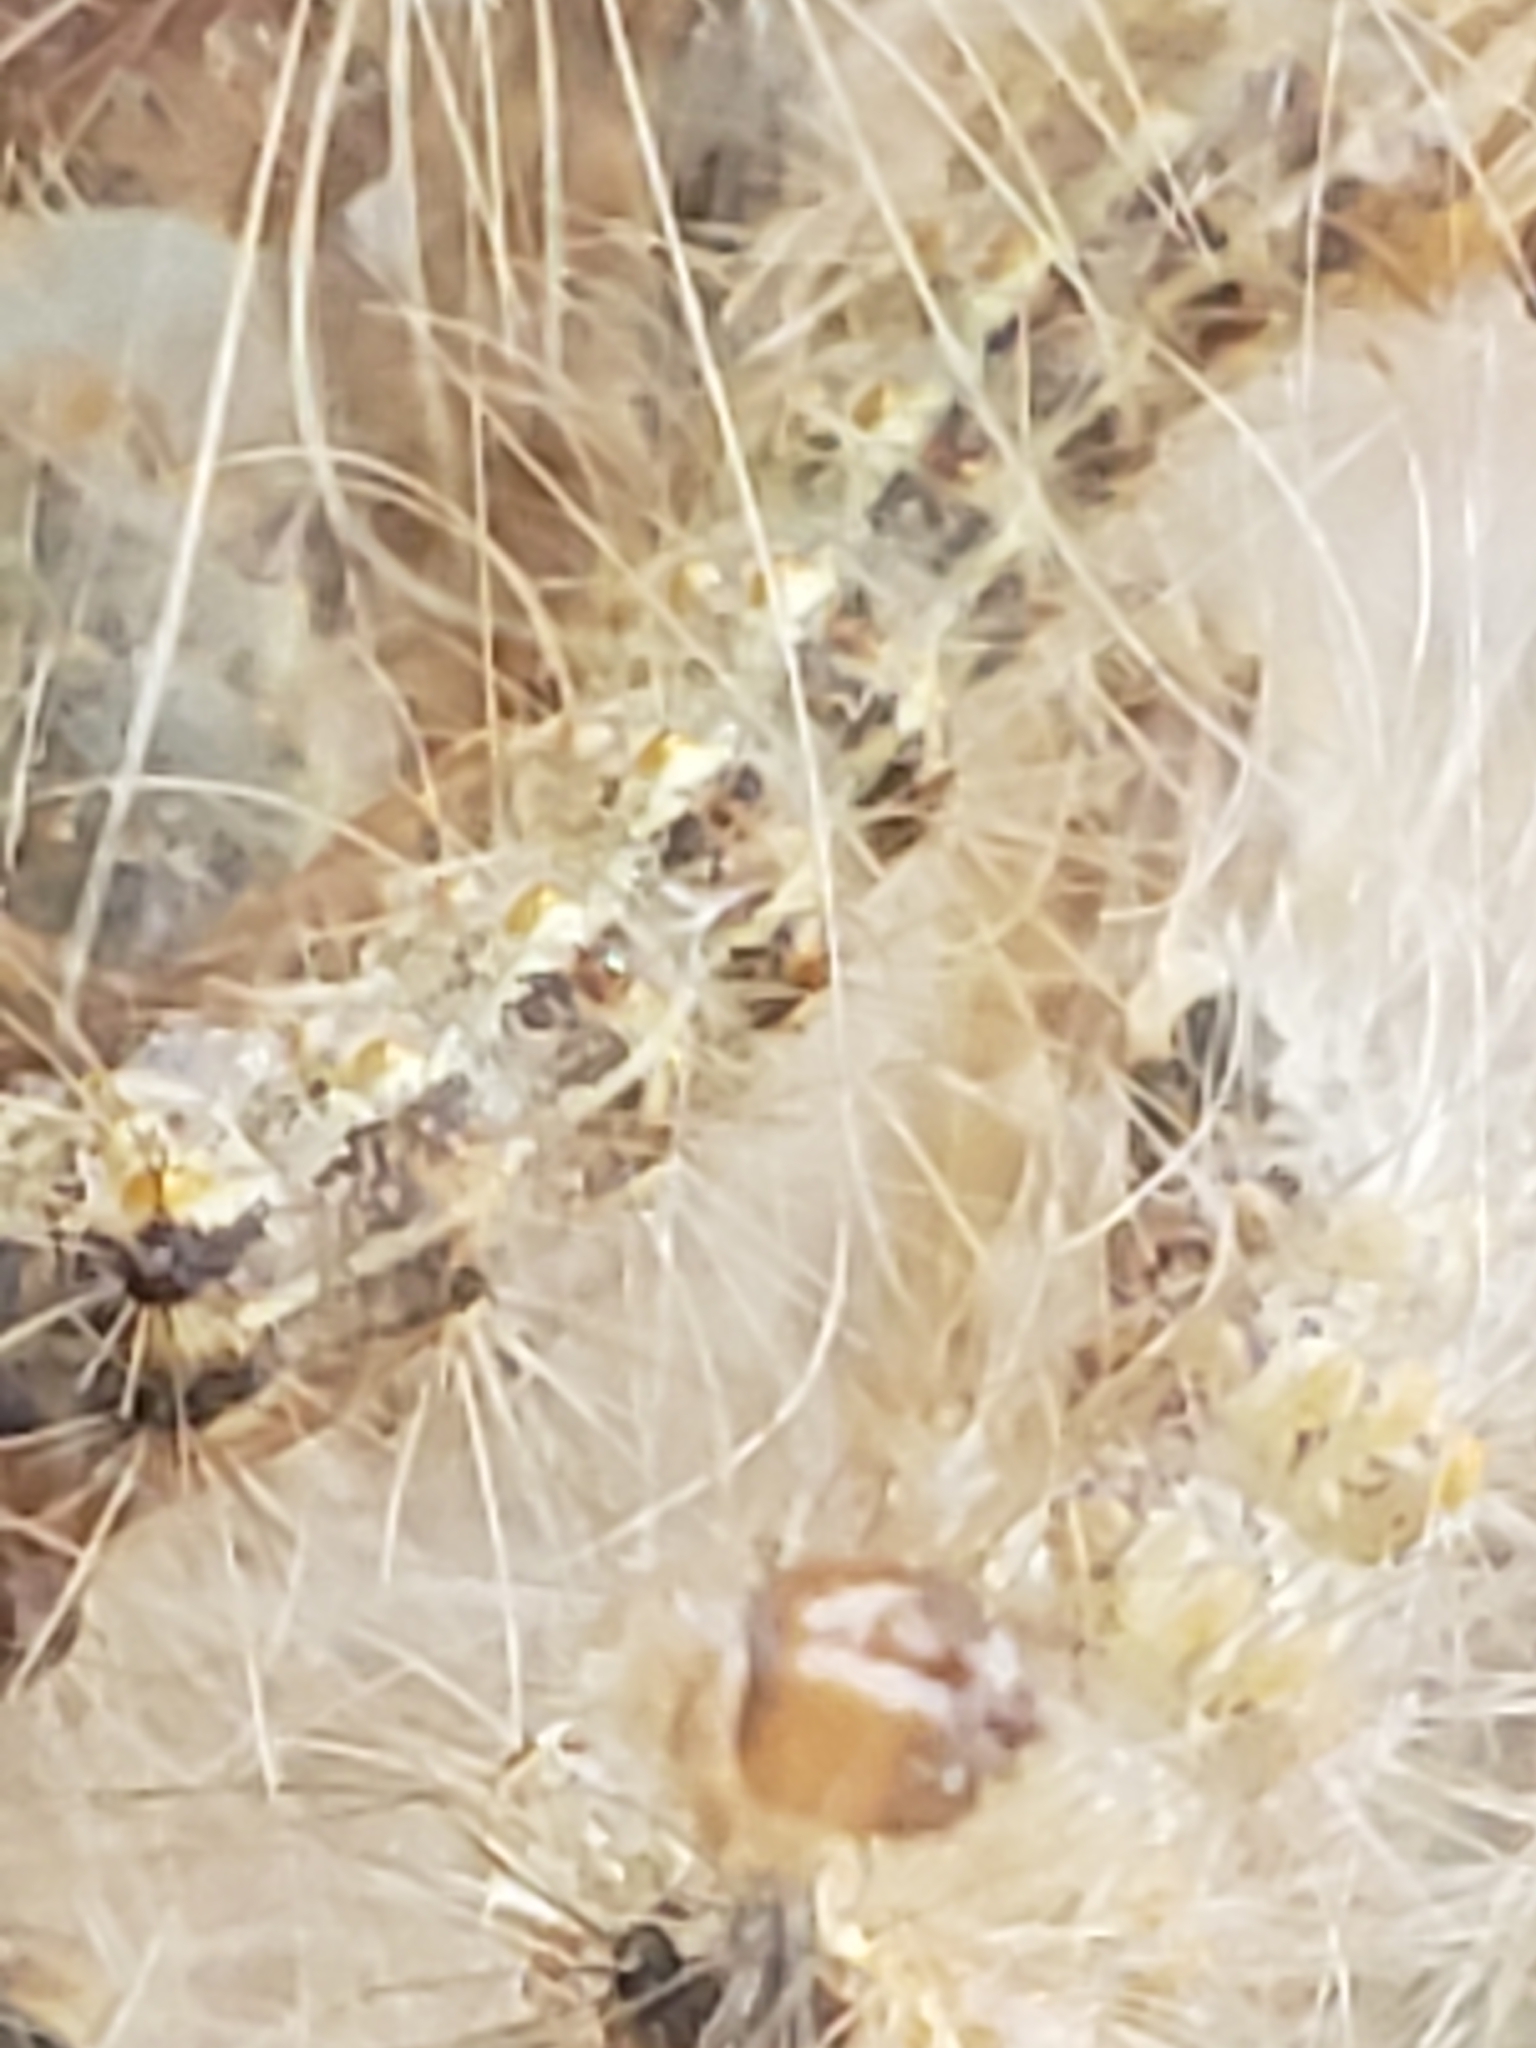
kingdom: Animalia
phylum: Arthropoda
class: Insecta
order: Lepidoptera
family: Erebidae
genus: Hyphantria
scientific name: Hyphantria cunea
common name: American white moth
